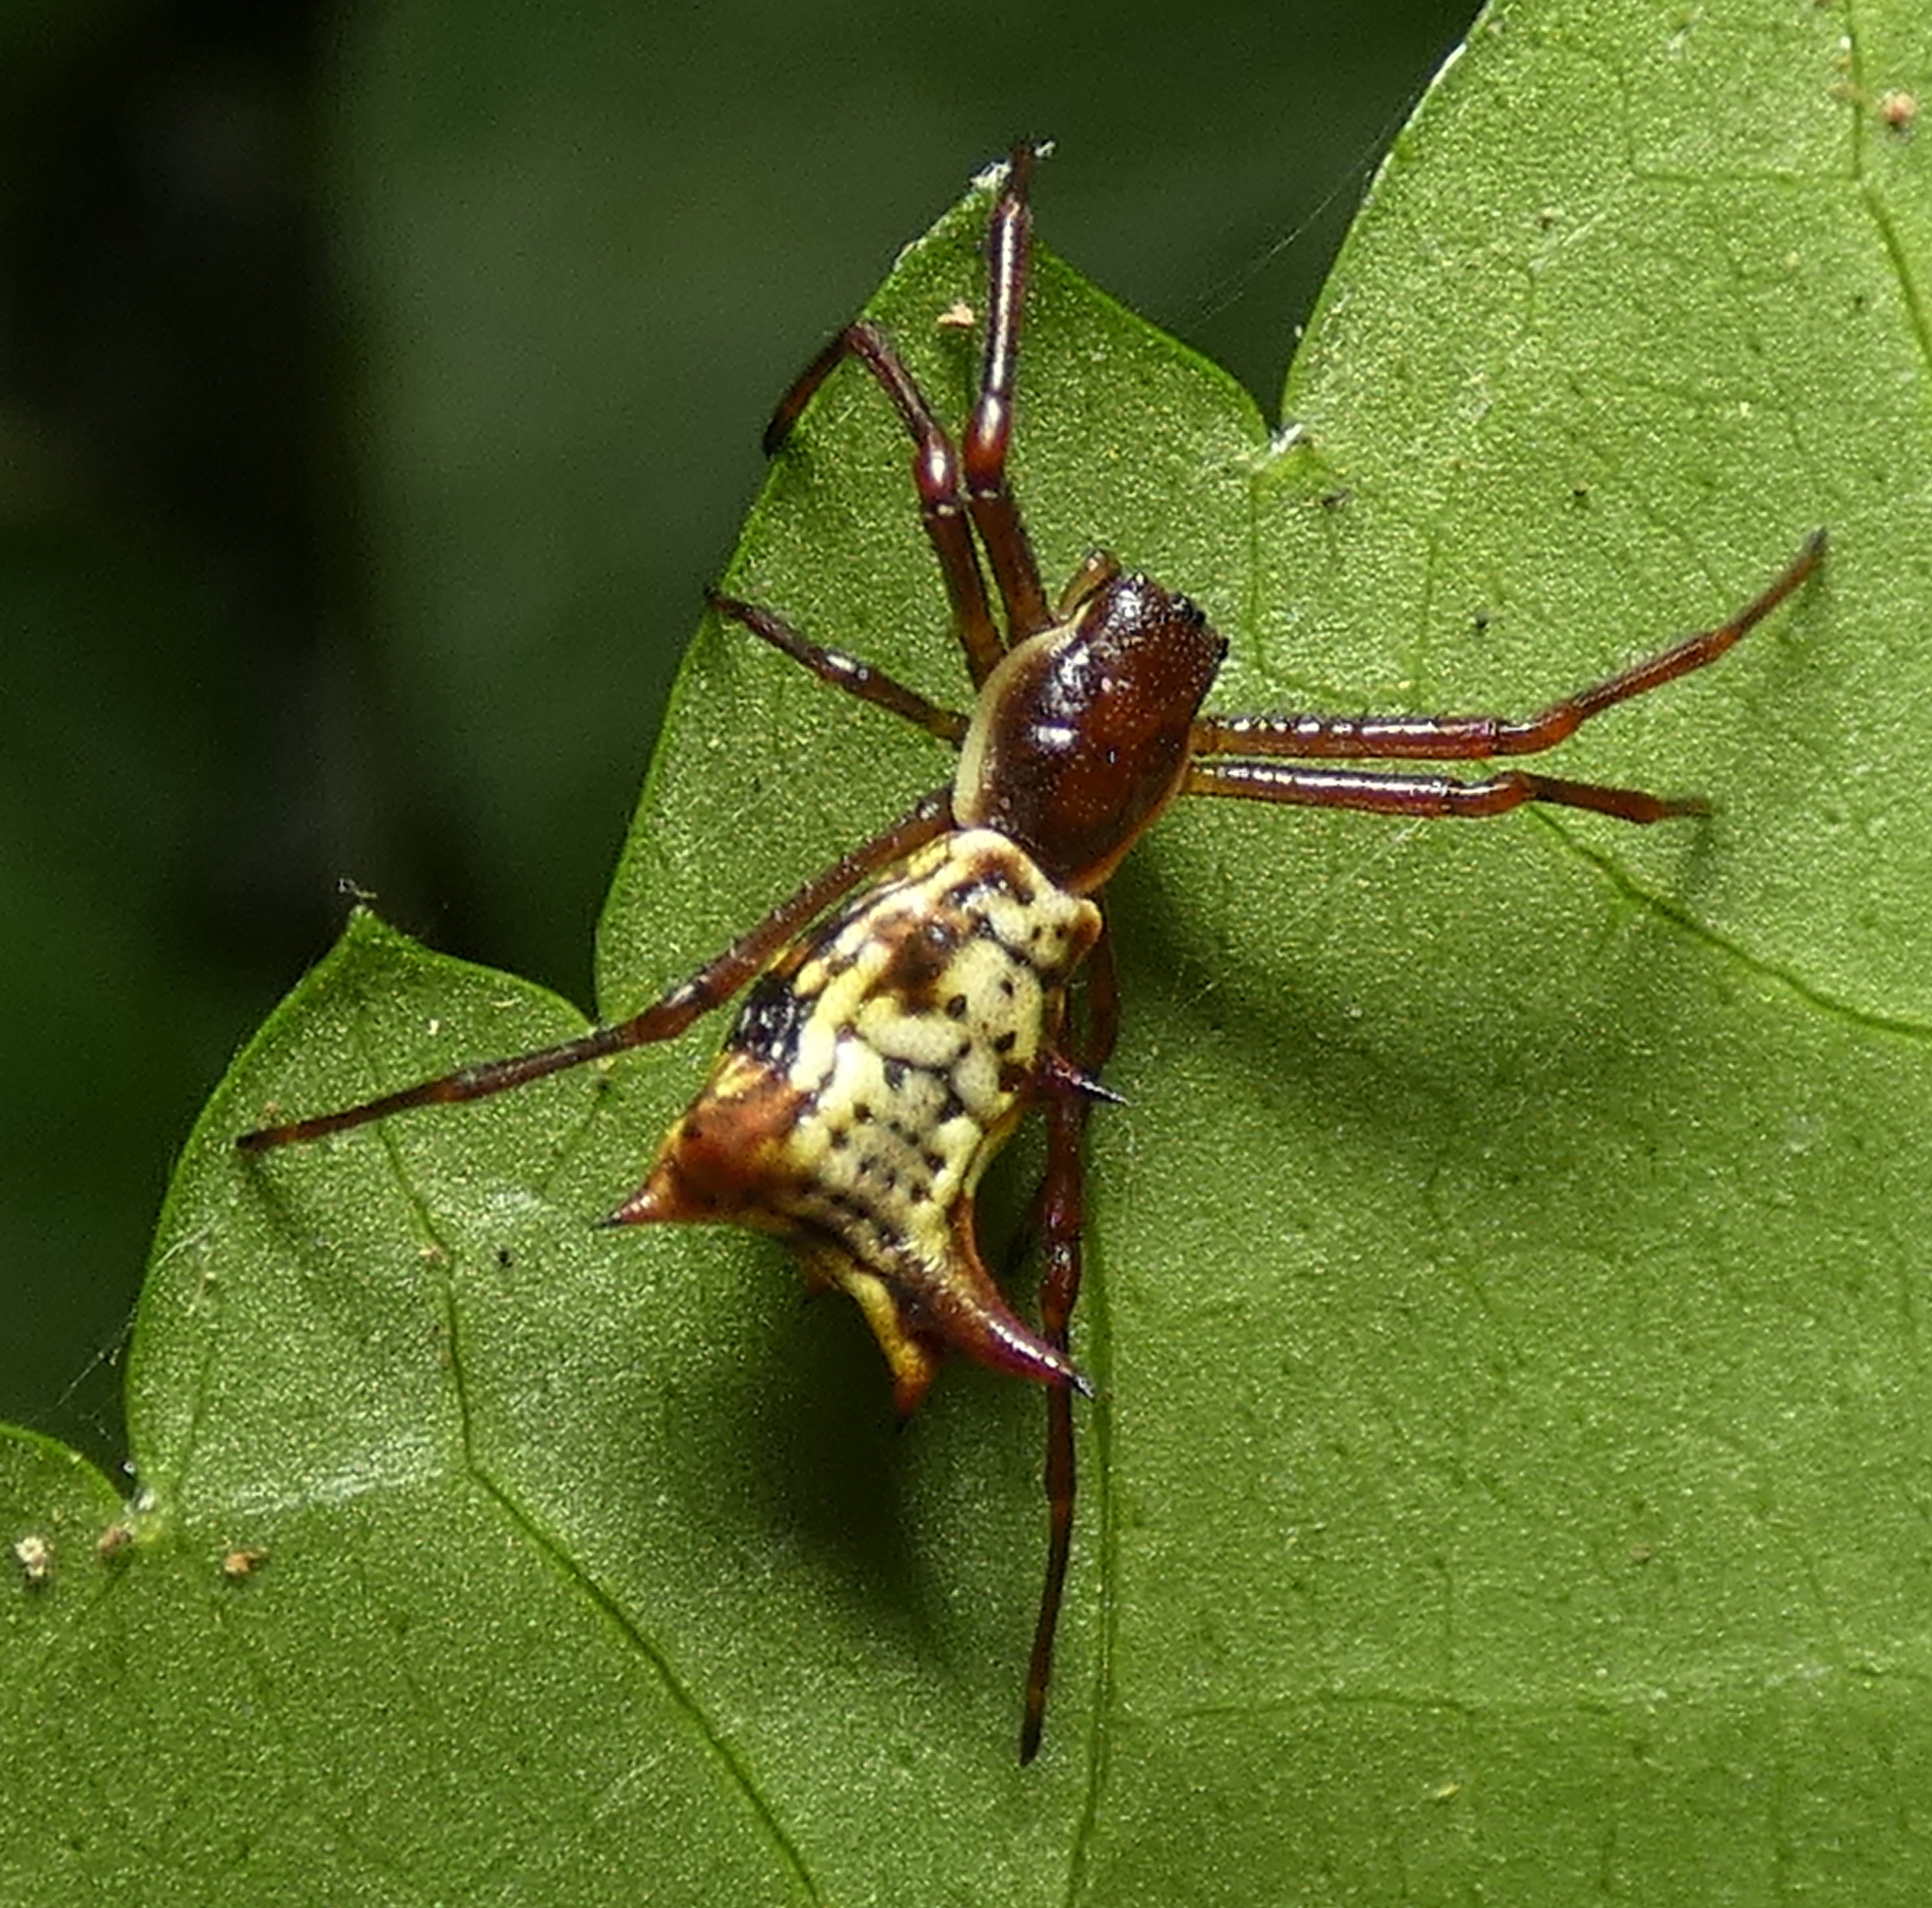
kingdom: Animalia
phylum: Arthropoda
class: Arachnida
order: Araneae
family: Araneidae
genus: Micrathena
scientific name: Micrathena fissispina
